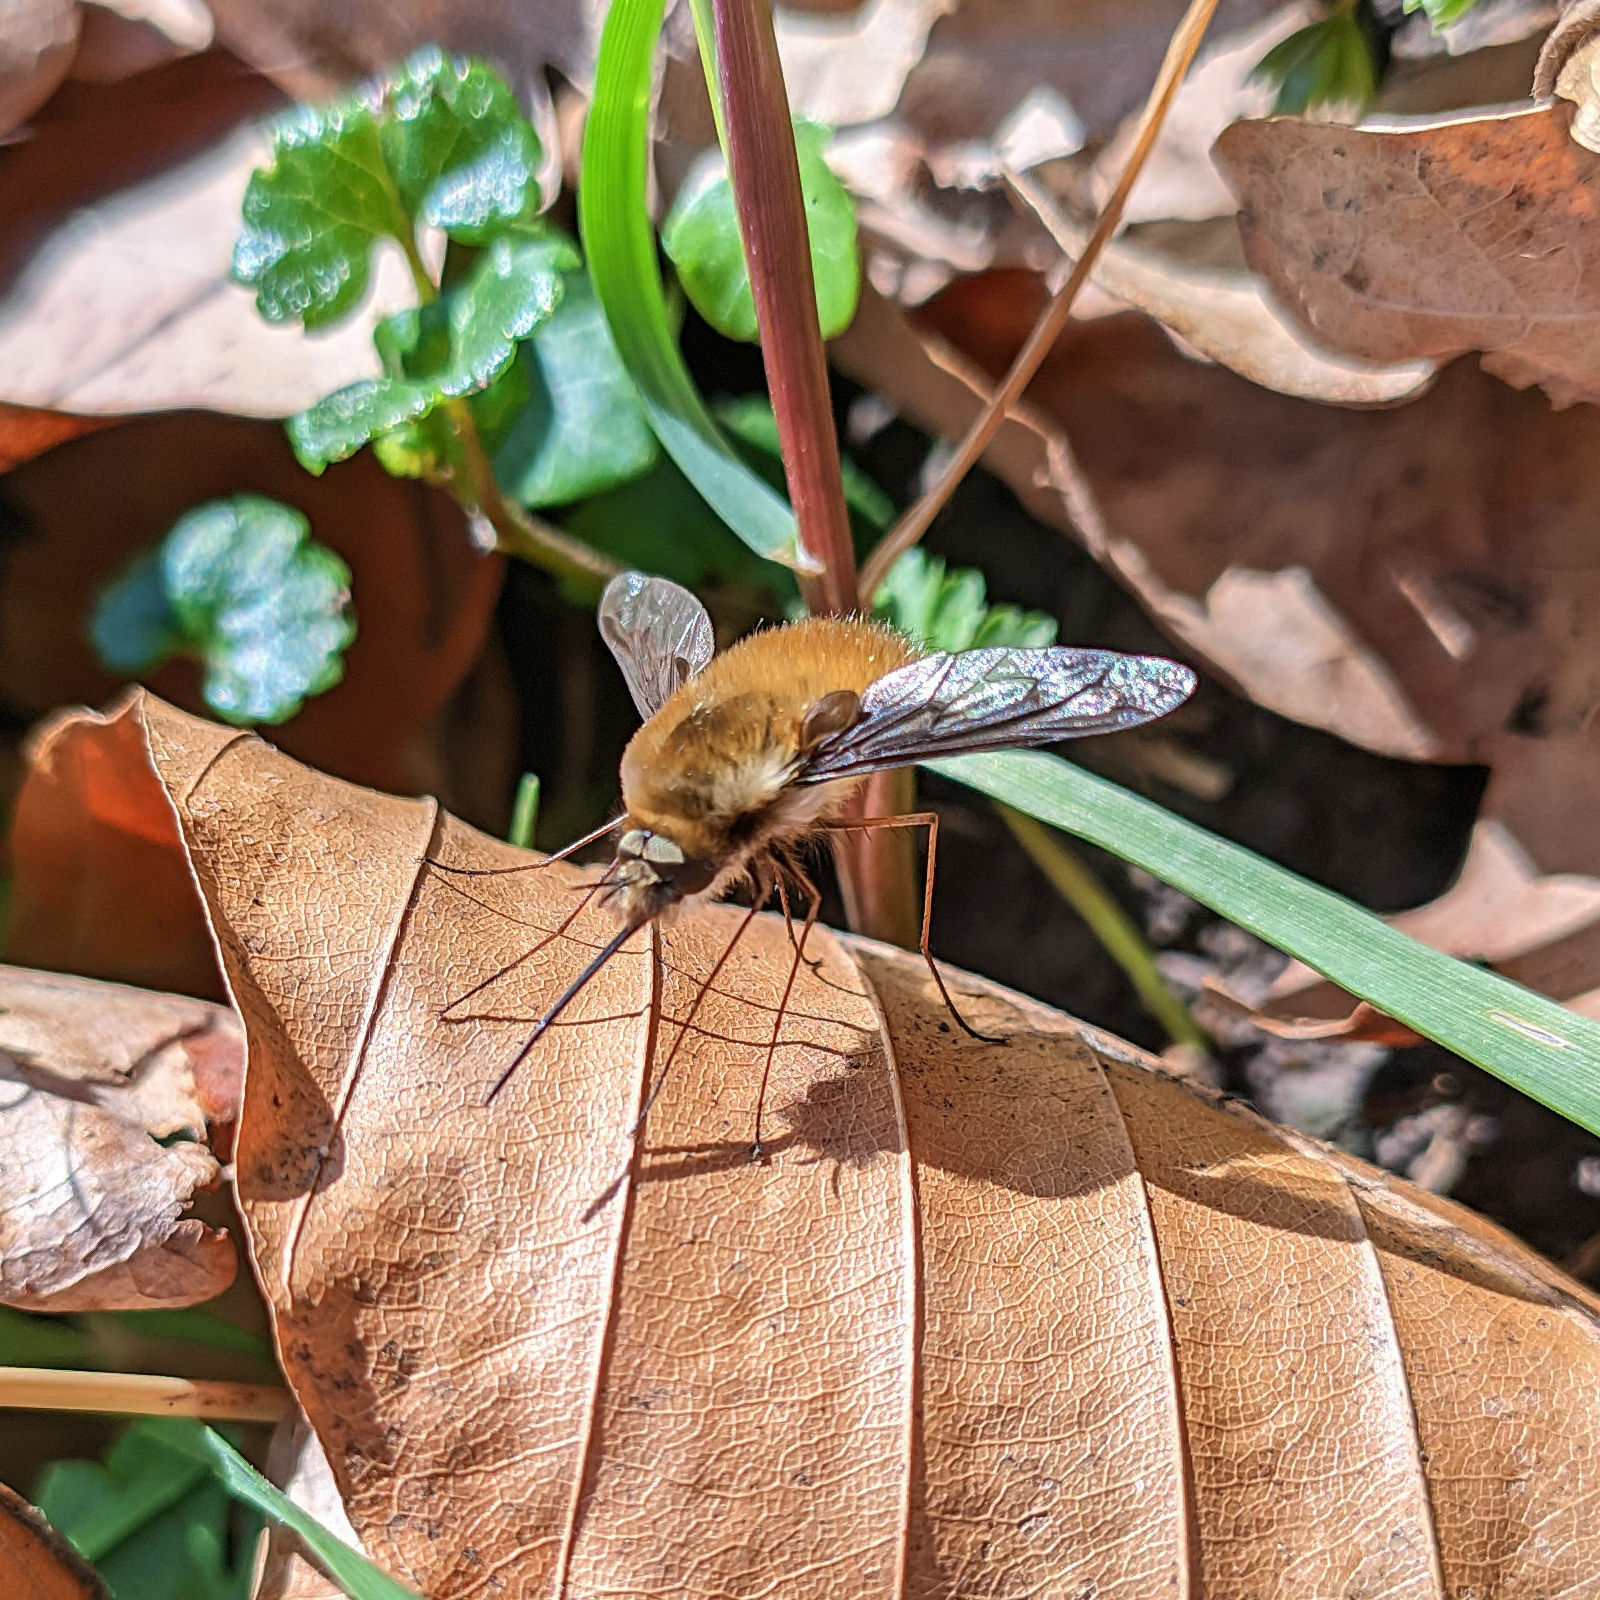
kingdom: Animalia
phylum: Arthropoda
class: Insecta
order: Diptera
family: Bombyliidae
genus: Bombylius
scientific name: Bombylius major
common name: Bee fly
